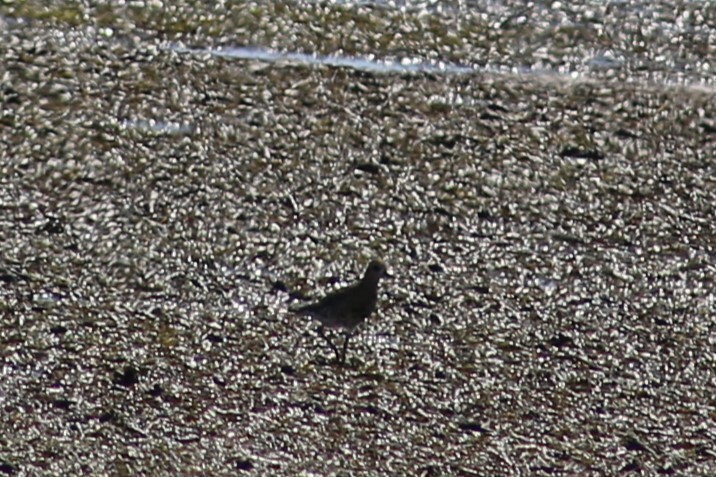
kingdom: Animalia
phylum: Chordata
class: Aves
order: Charadriiformes
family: Charadriidae
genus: Pluvialis
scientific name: Pluvialis fulva
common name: Pacific golden plover
